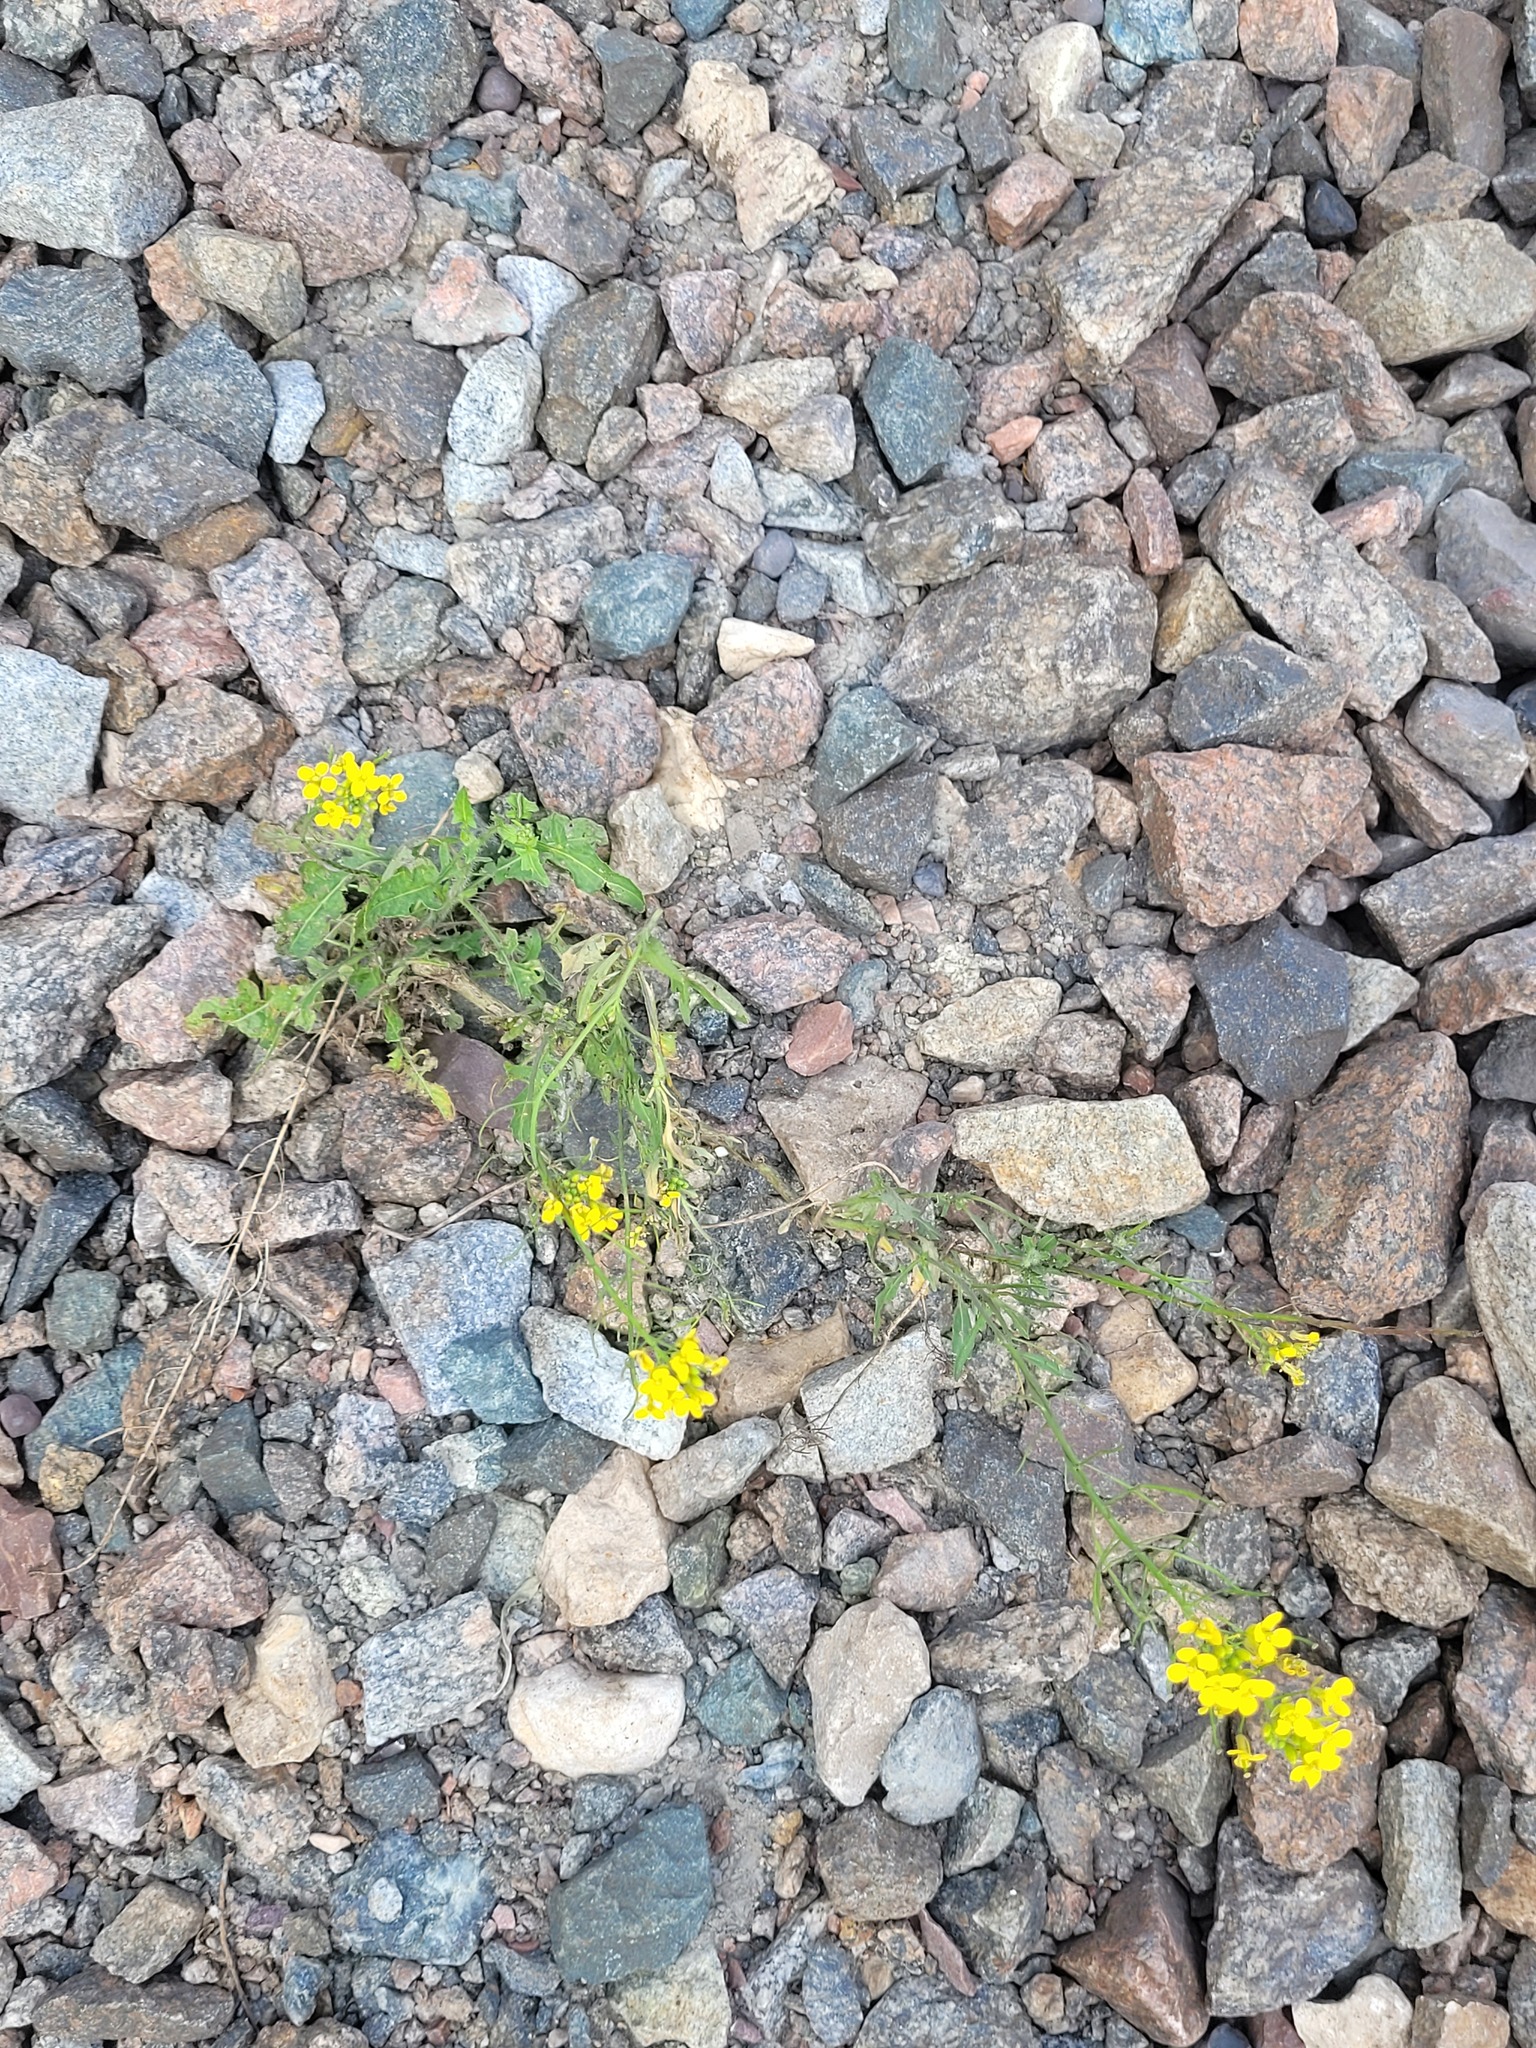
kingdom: Plantae
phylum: Tracheophyta
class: Magnoliopsida
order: Brassicales
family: Brassicaceae
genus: Sisymbrium
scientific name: Sisymbrium loeselii
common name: False london-rocket
